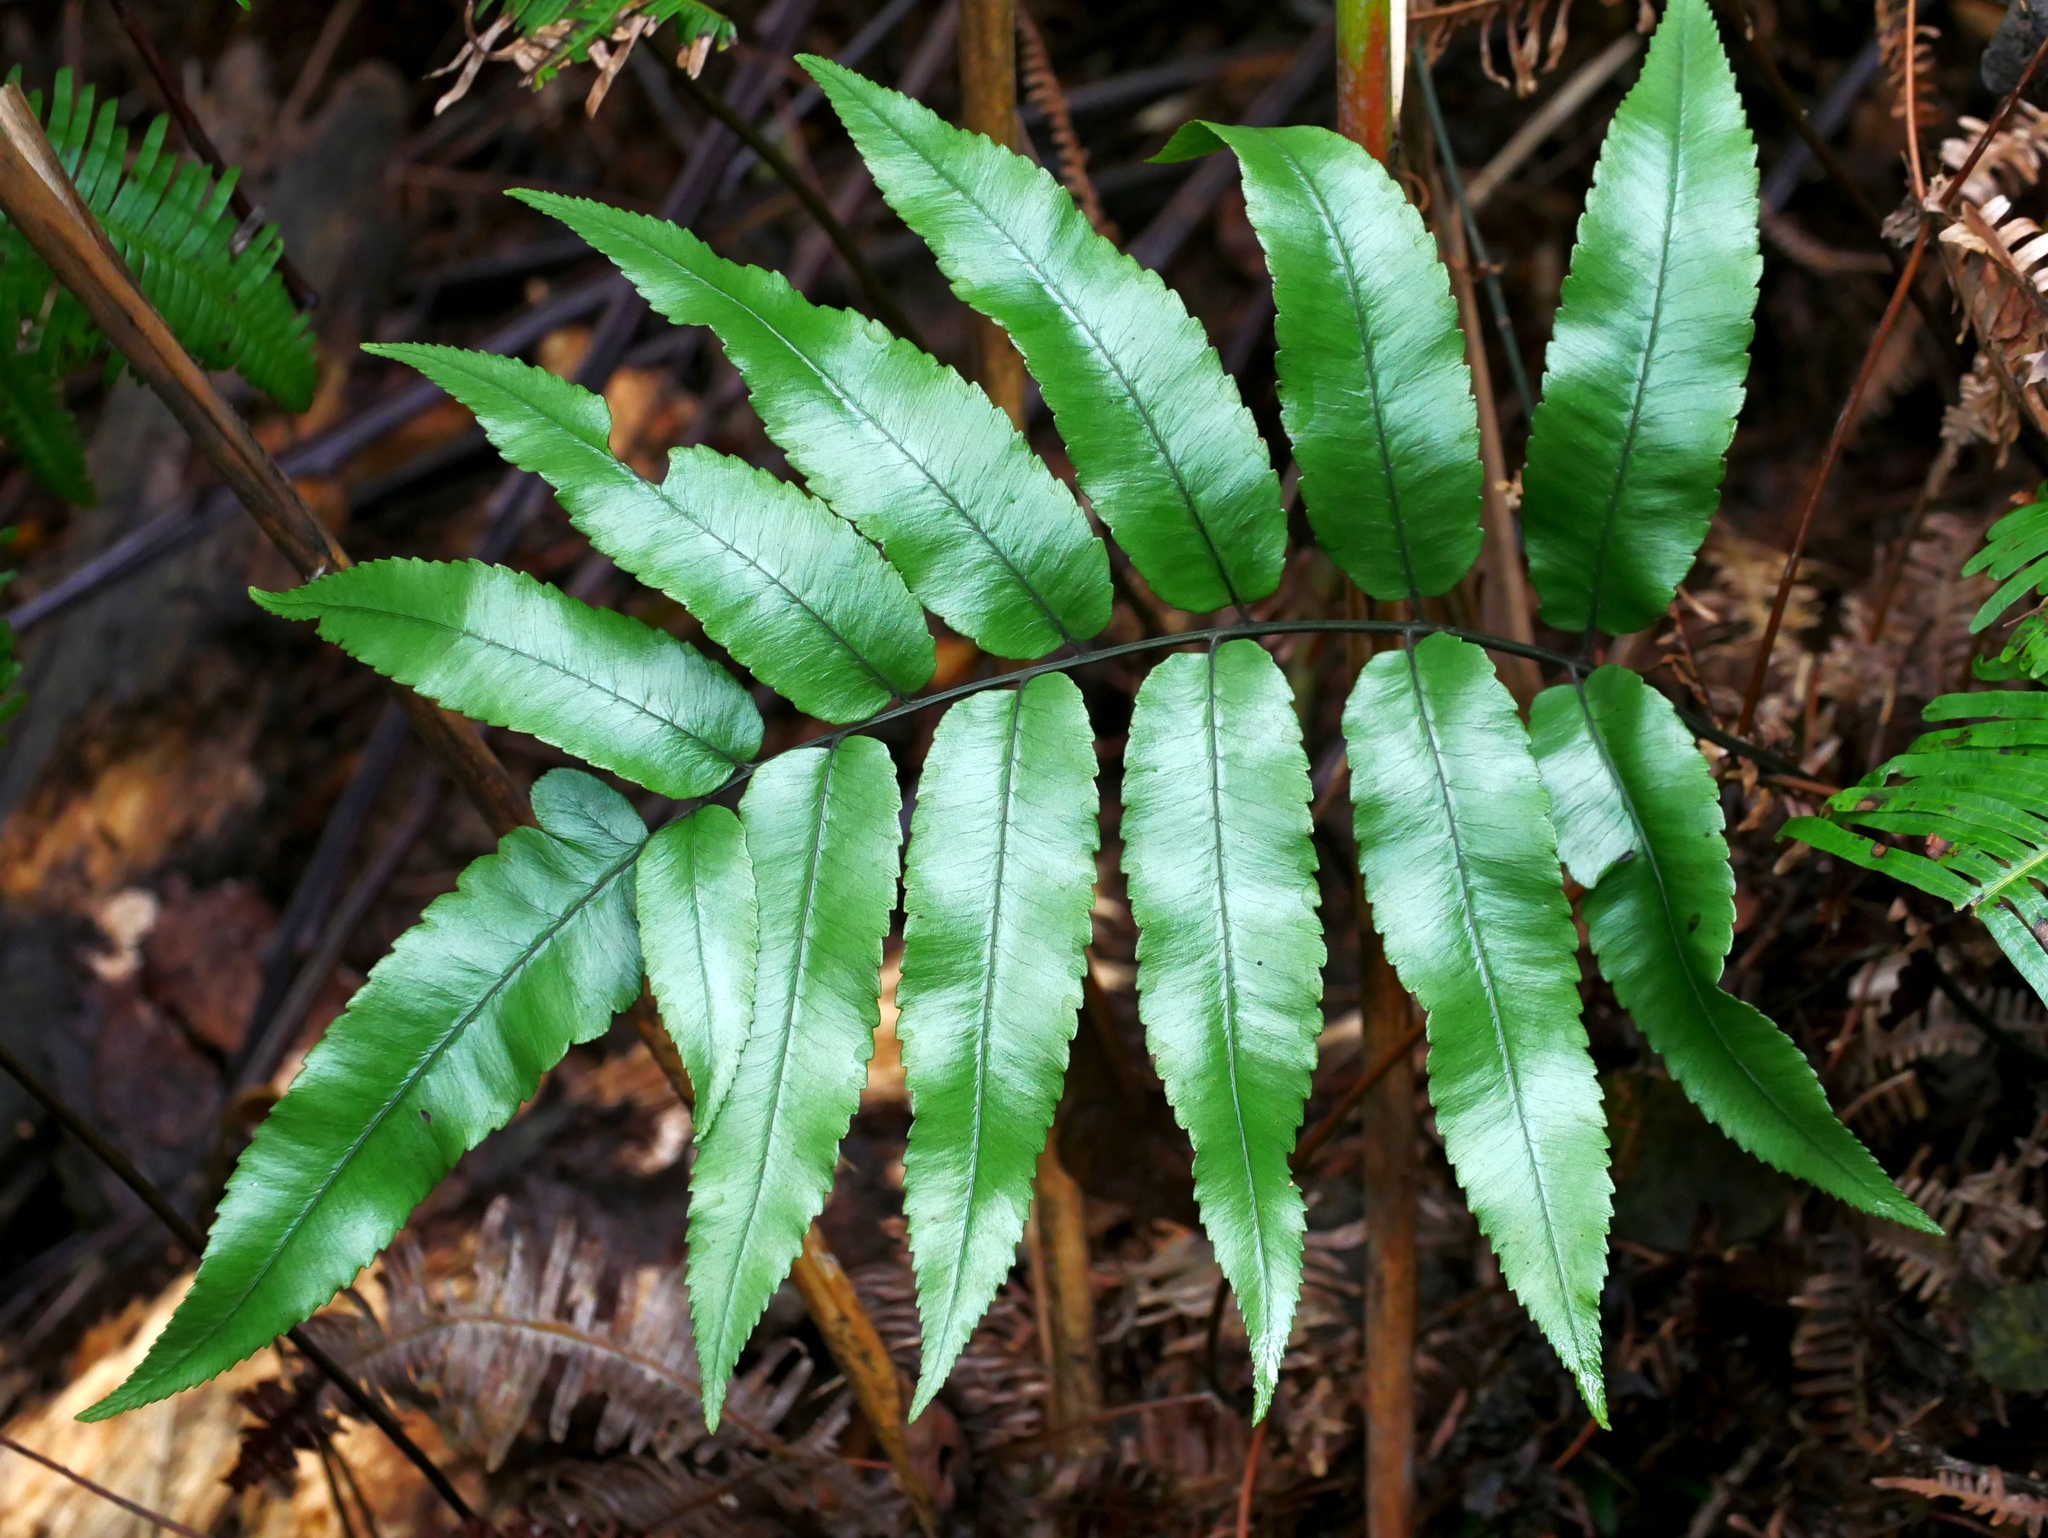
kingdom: Plantae
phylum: Tracheophyta
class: Polypodiopsida
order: Polypodiales
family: Athyriaceae
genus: Diplazium
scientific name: Diplazium maonense
